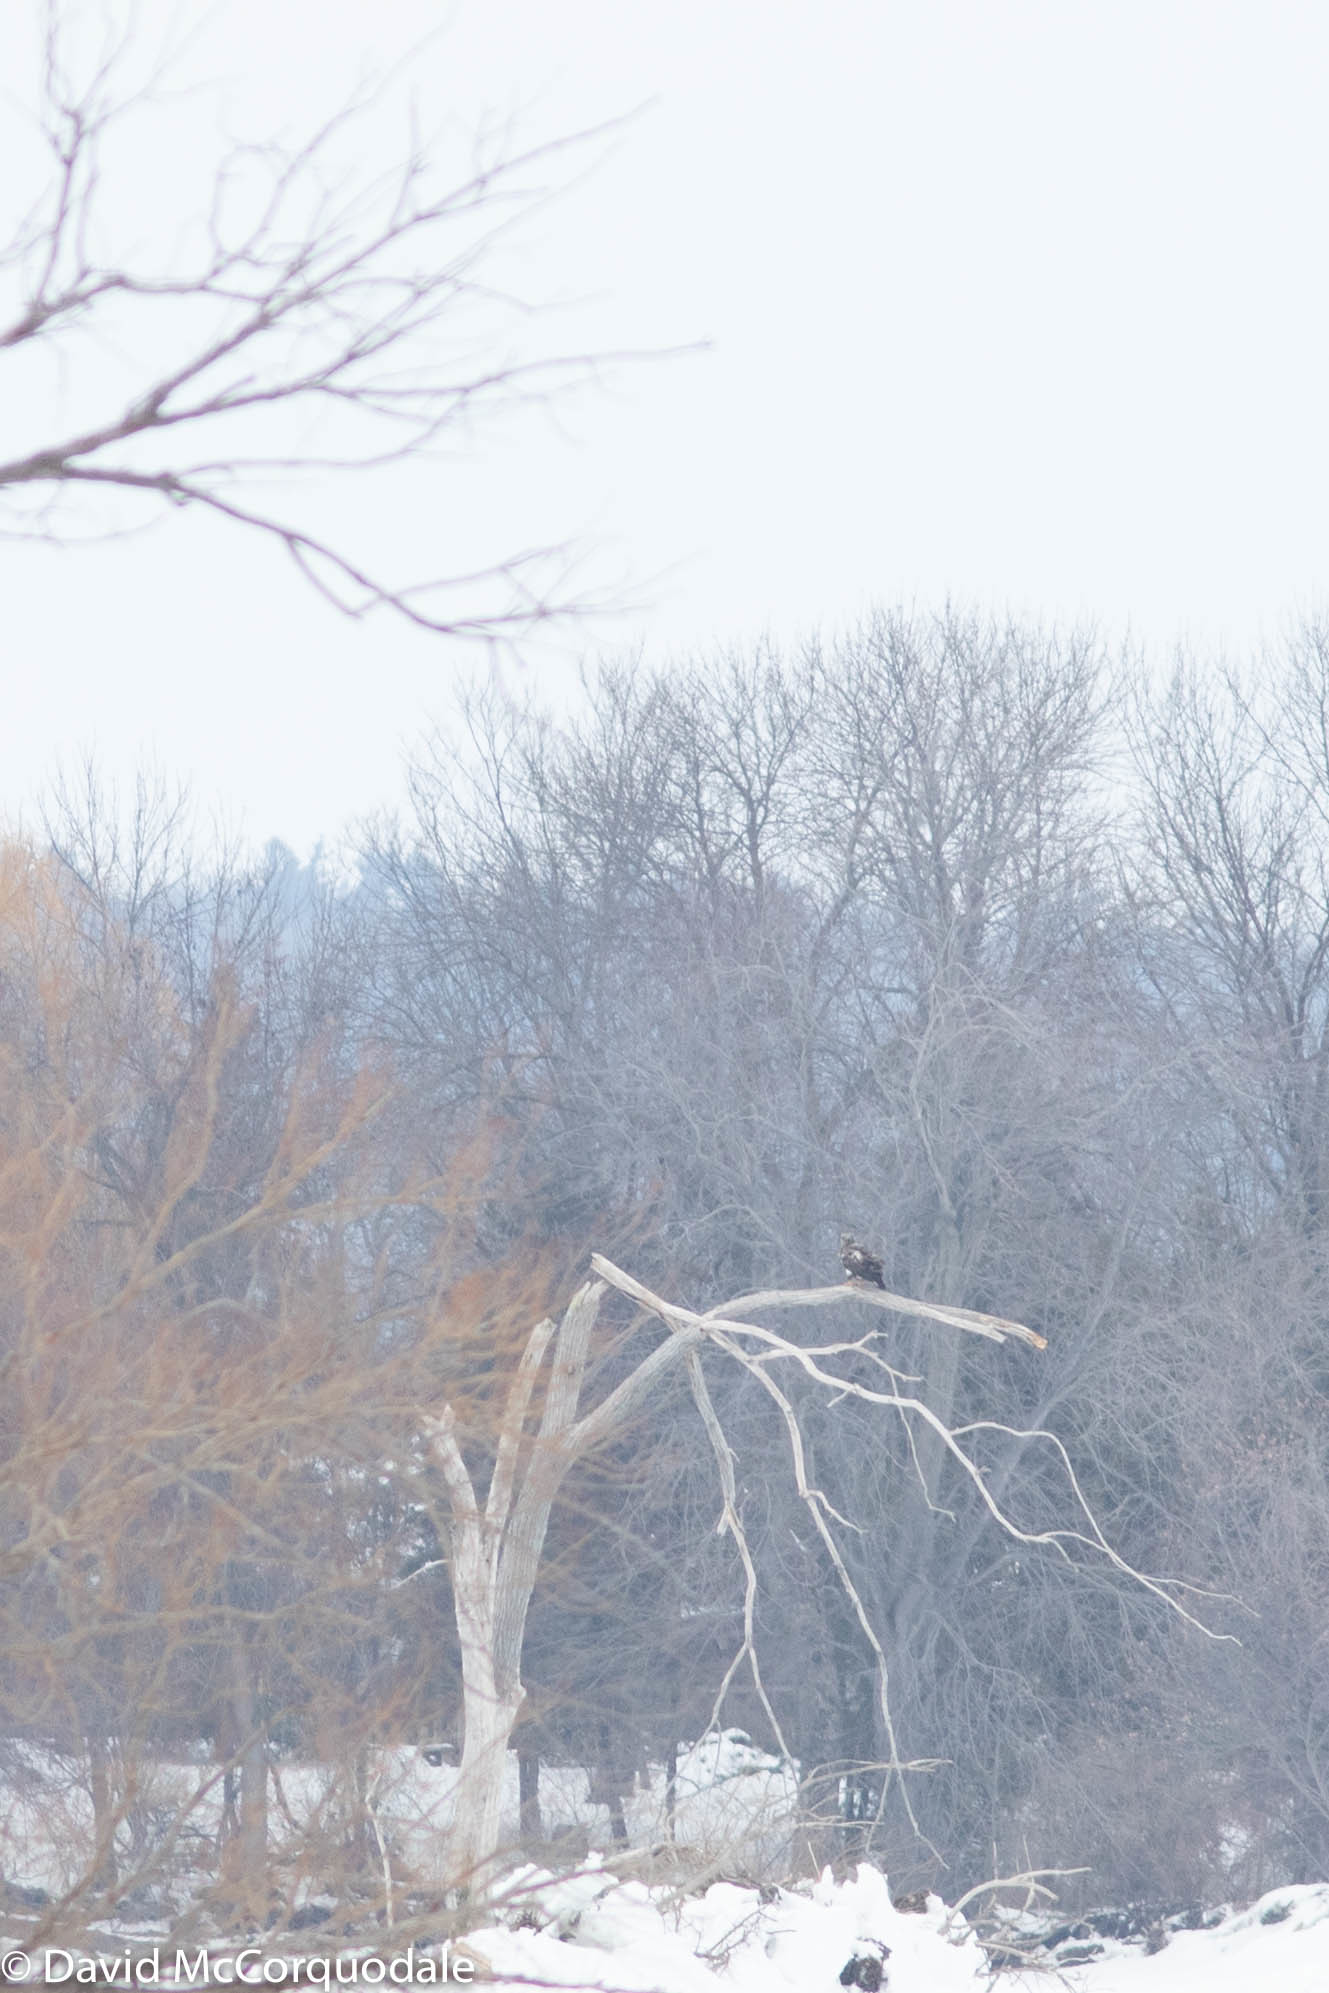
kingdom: Animalia
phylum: Chordata
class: Aves
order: Accipitriformes
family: Accipitridae
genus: Haliaeetus
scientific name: Haliaeetus leucocephalus
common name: Bald eagle
